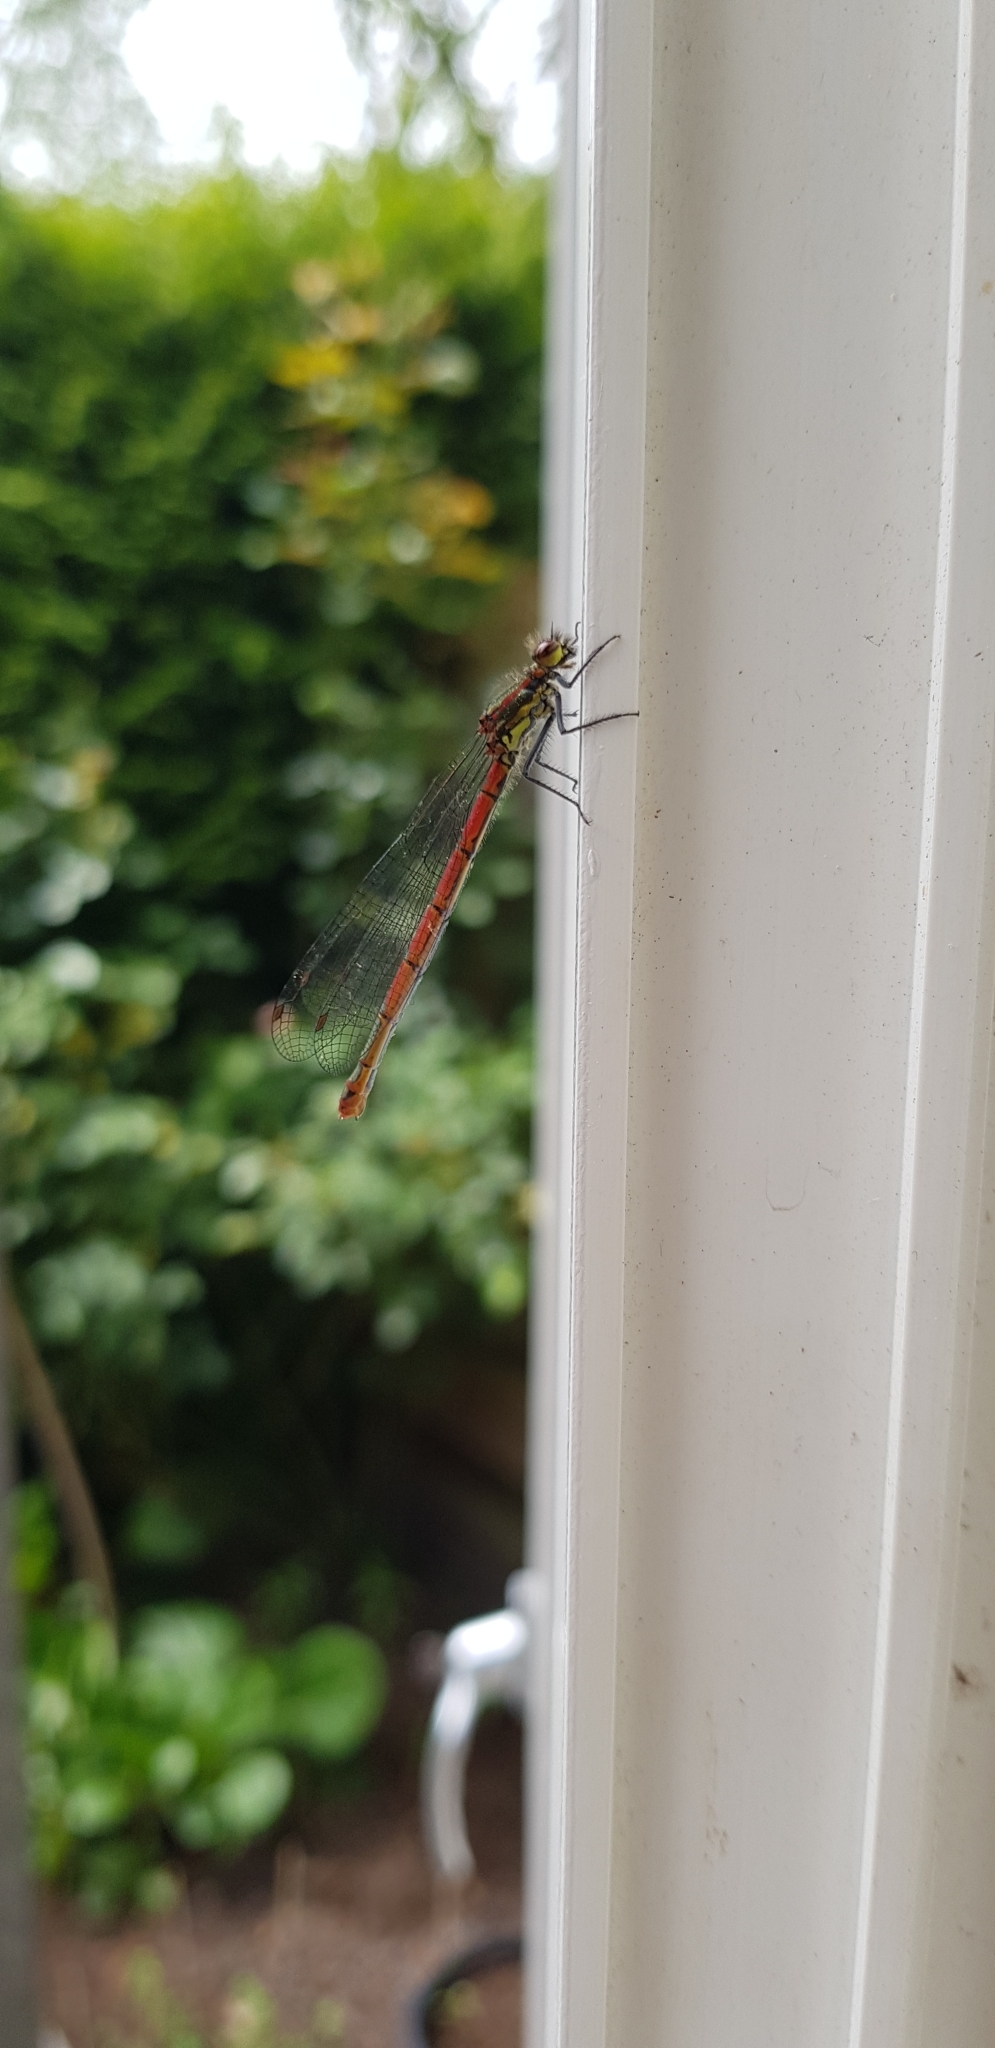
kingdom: Animalia
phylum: Arthropoda
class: Insecta
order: Odonata
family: Coenagrionidae
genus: Pyrrhosoma
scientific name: Pyrrhosoma nymphula
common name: Large red damsel
